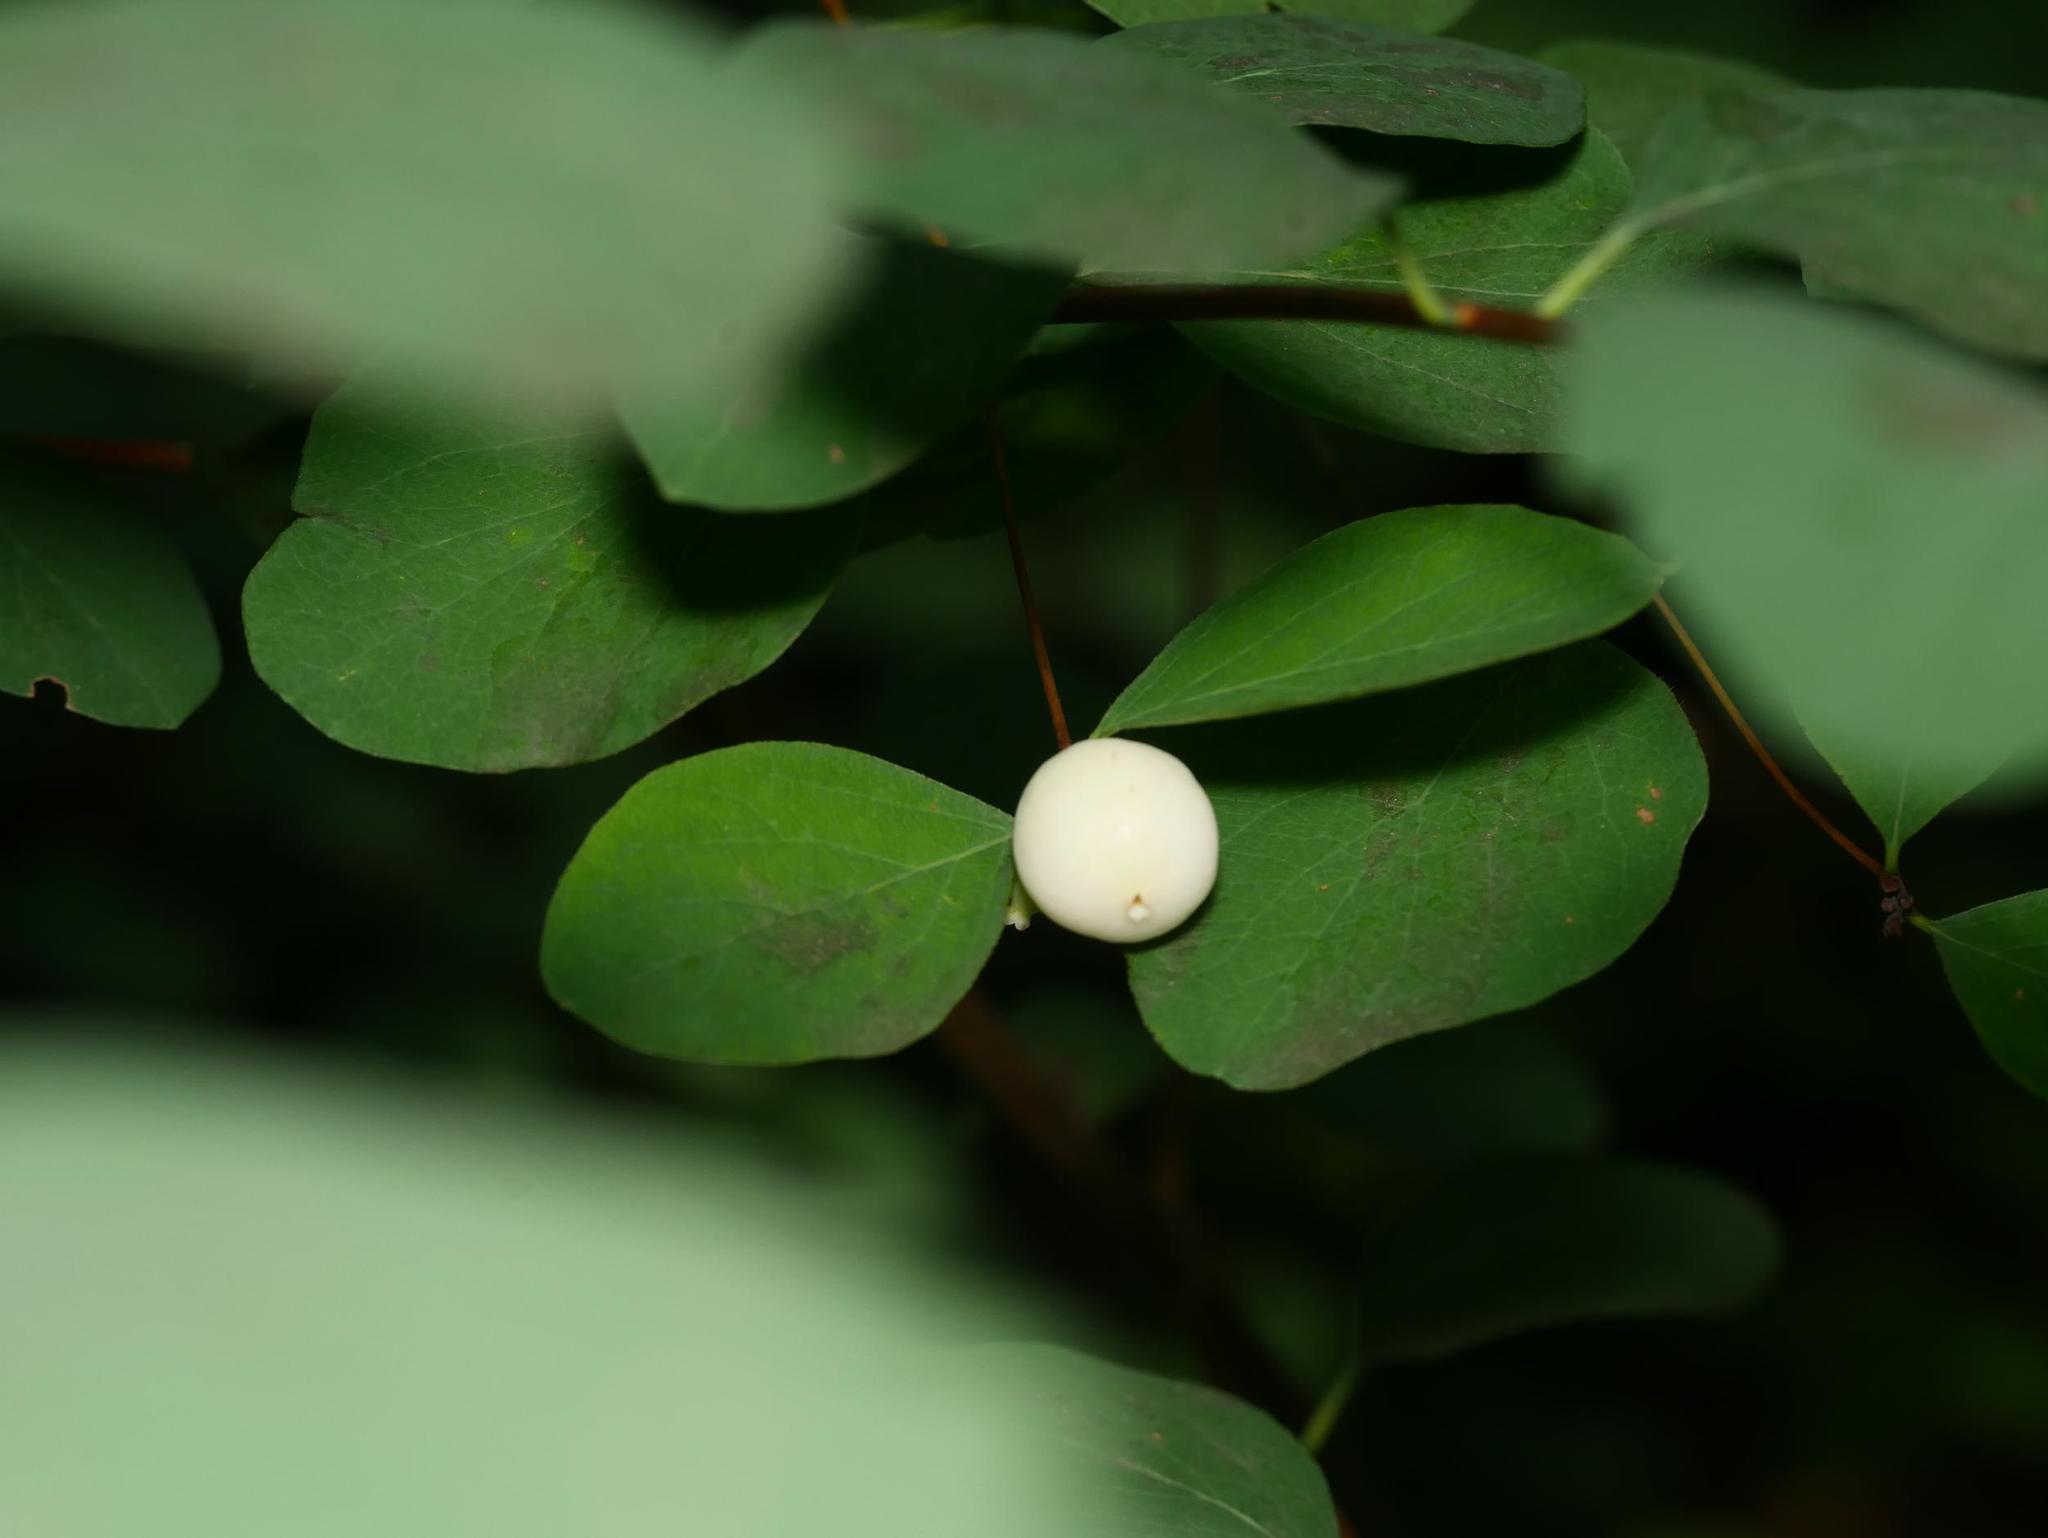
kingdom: Plantae
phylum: Tracheophyta
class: Magnoliopsida
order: Dipsacales
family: Caprifoliaceae
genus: Symphoricarpos
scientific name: Symphoricarpos albus
